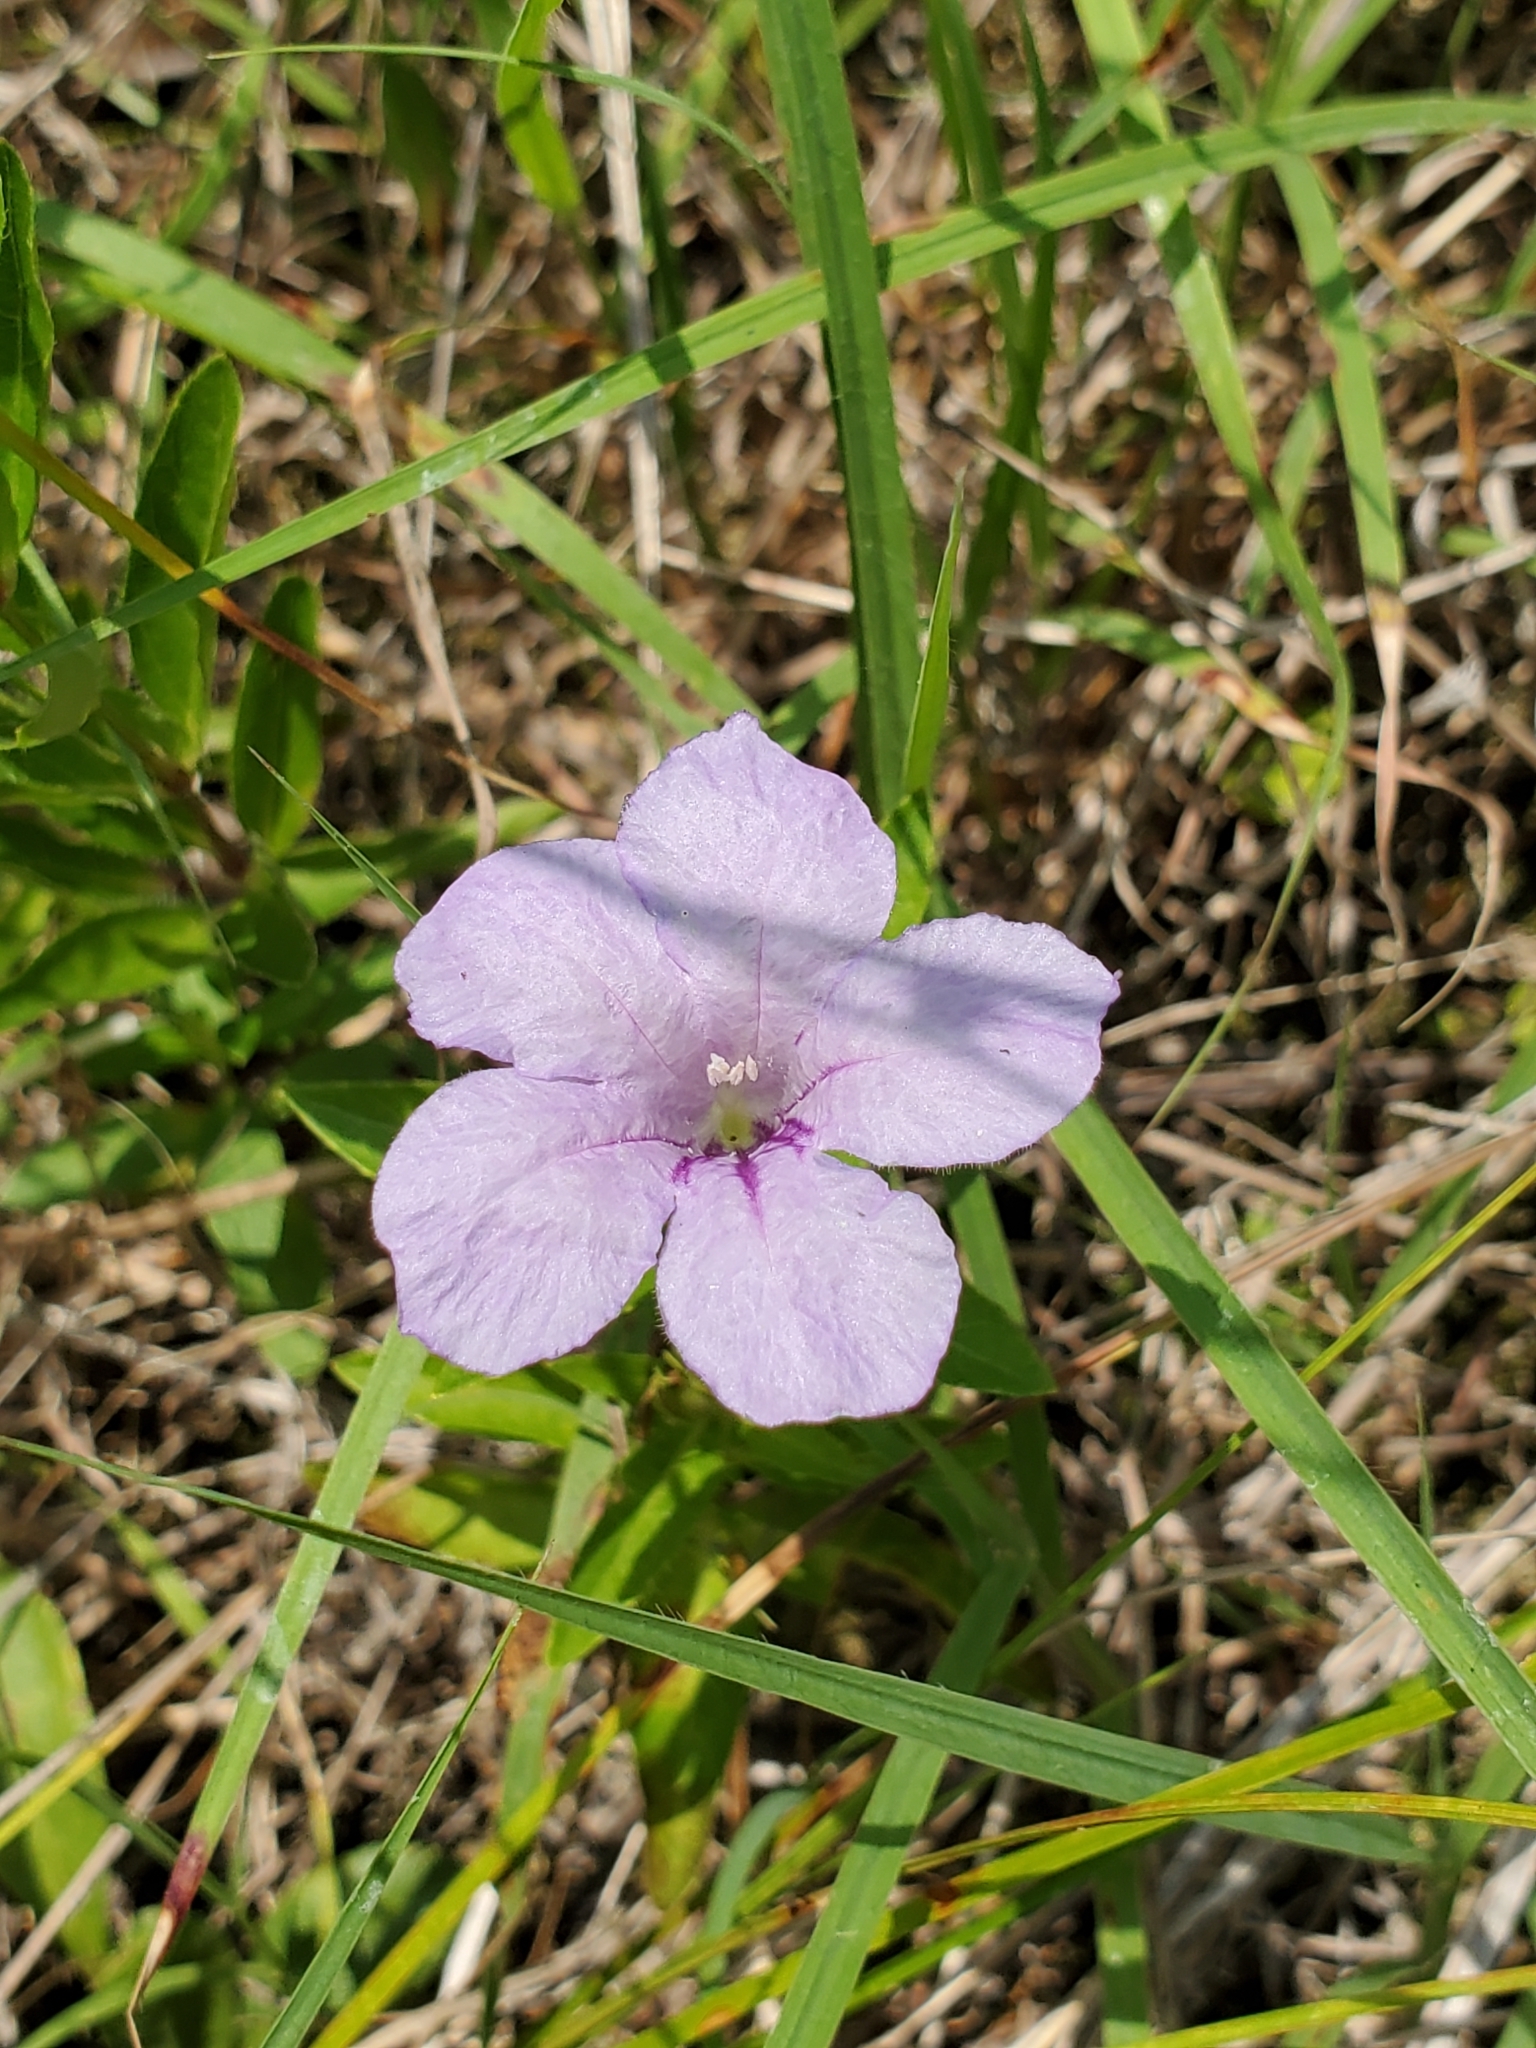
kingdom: Plantae
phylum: Tracheophyta
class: Magnoliopsida
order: Lamiales
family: Acanthaceae
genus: Ruellia
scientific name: Ruellia humilis
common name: Fringe-leaf ruellia
